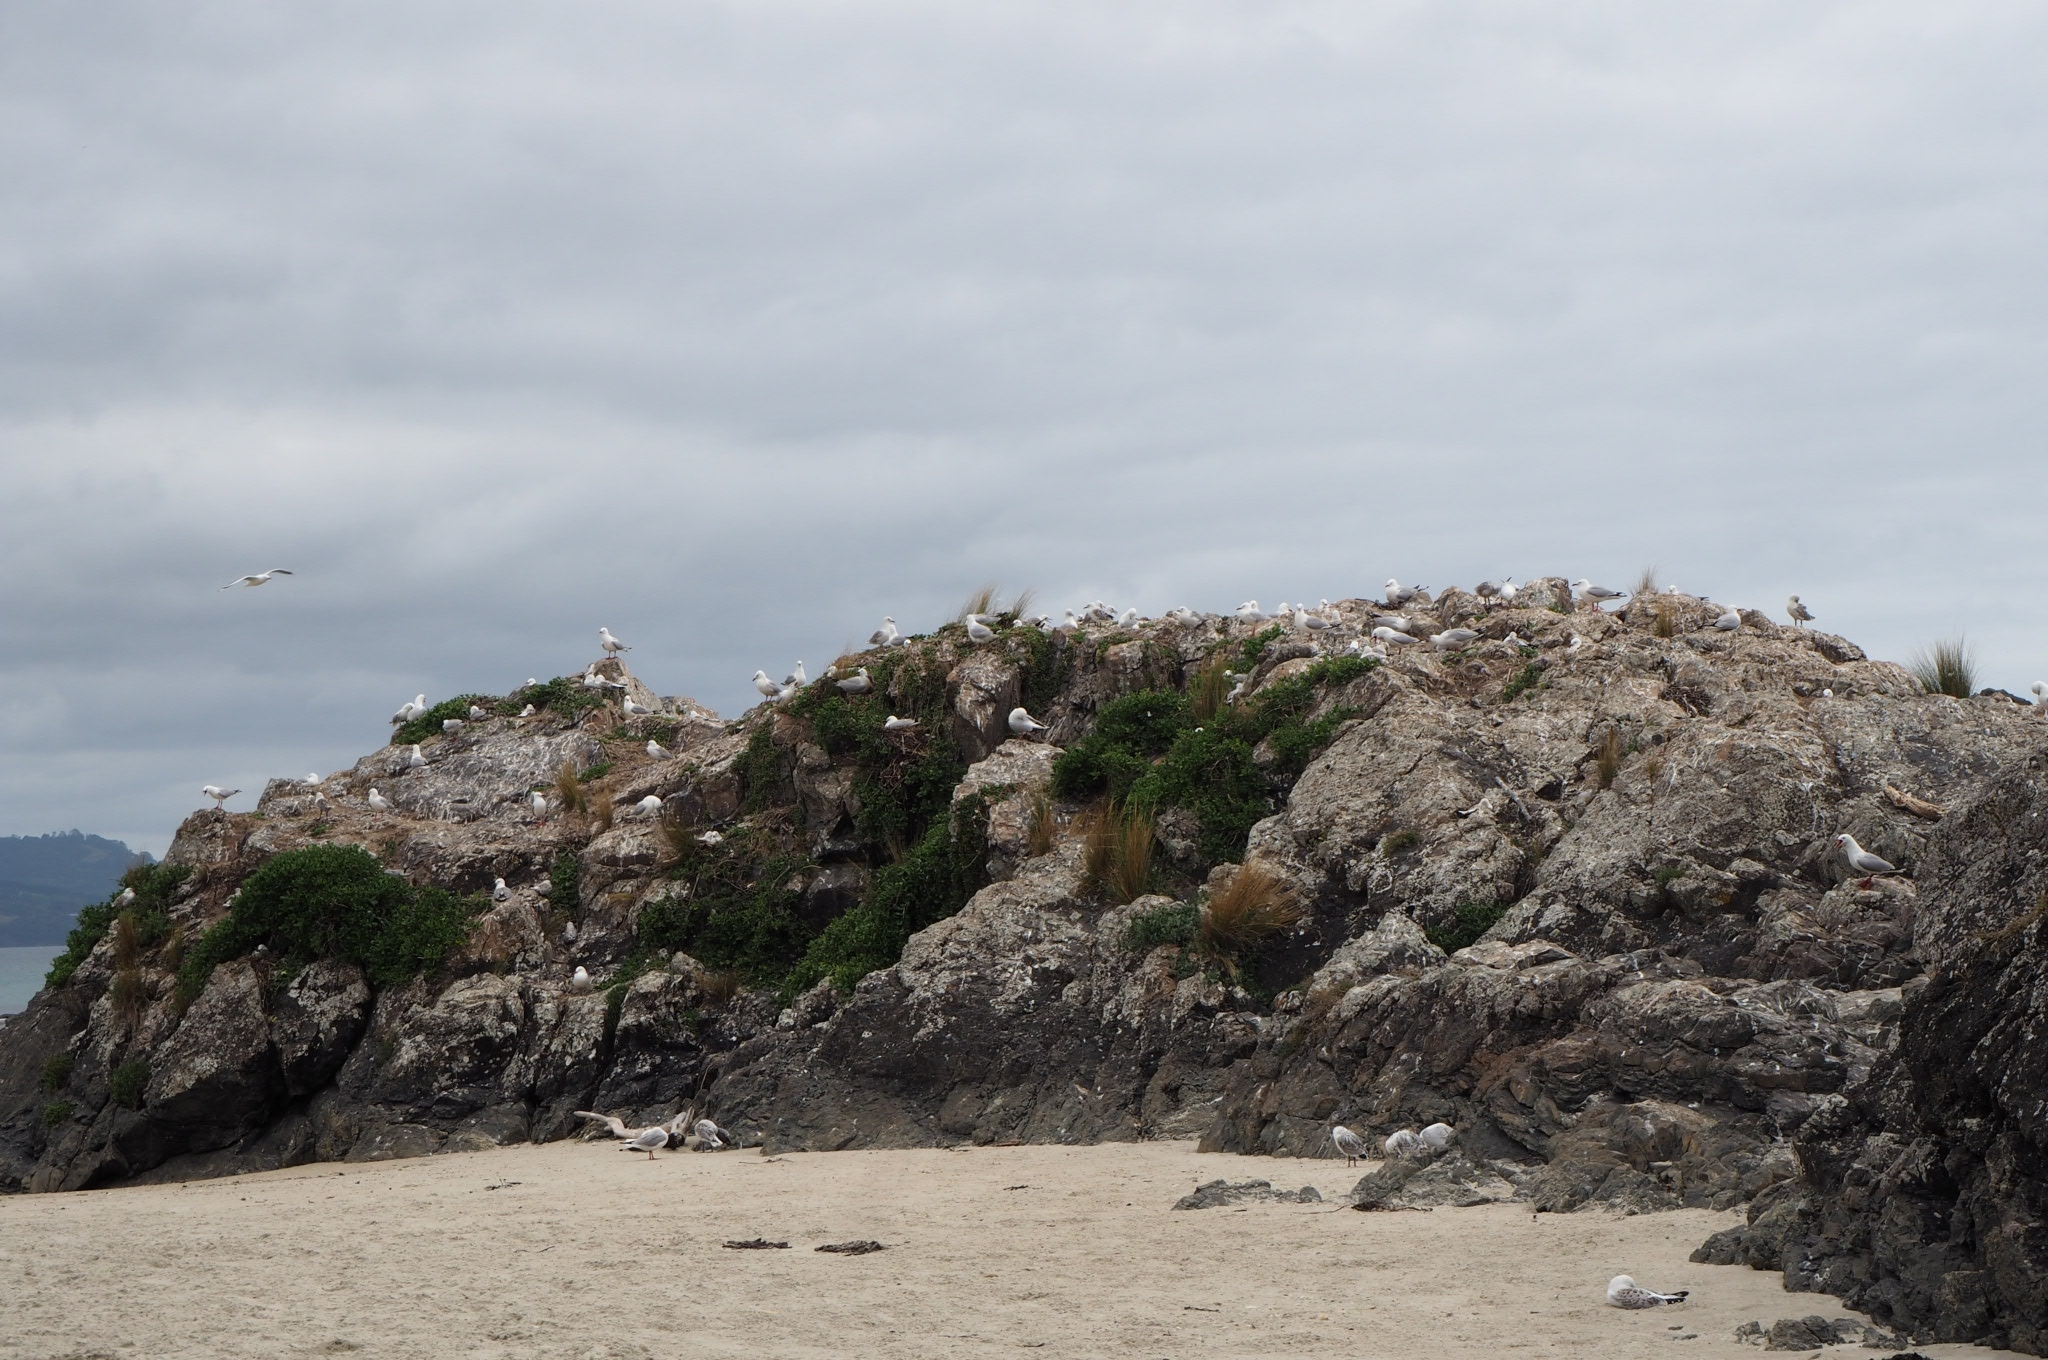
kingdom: Animalia
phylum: Chordata
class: Aves
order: Charadriiformes
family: Laridae
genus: Chroicocephalus
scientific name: Chroicocephalus novaehollandiae
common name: Silver gull
